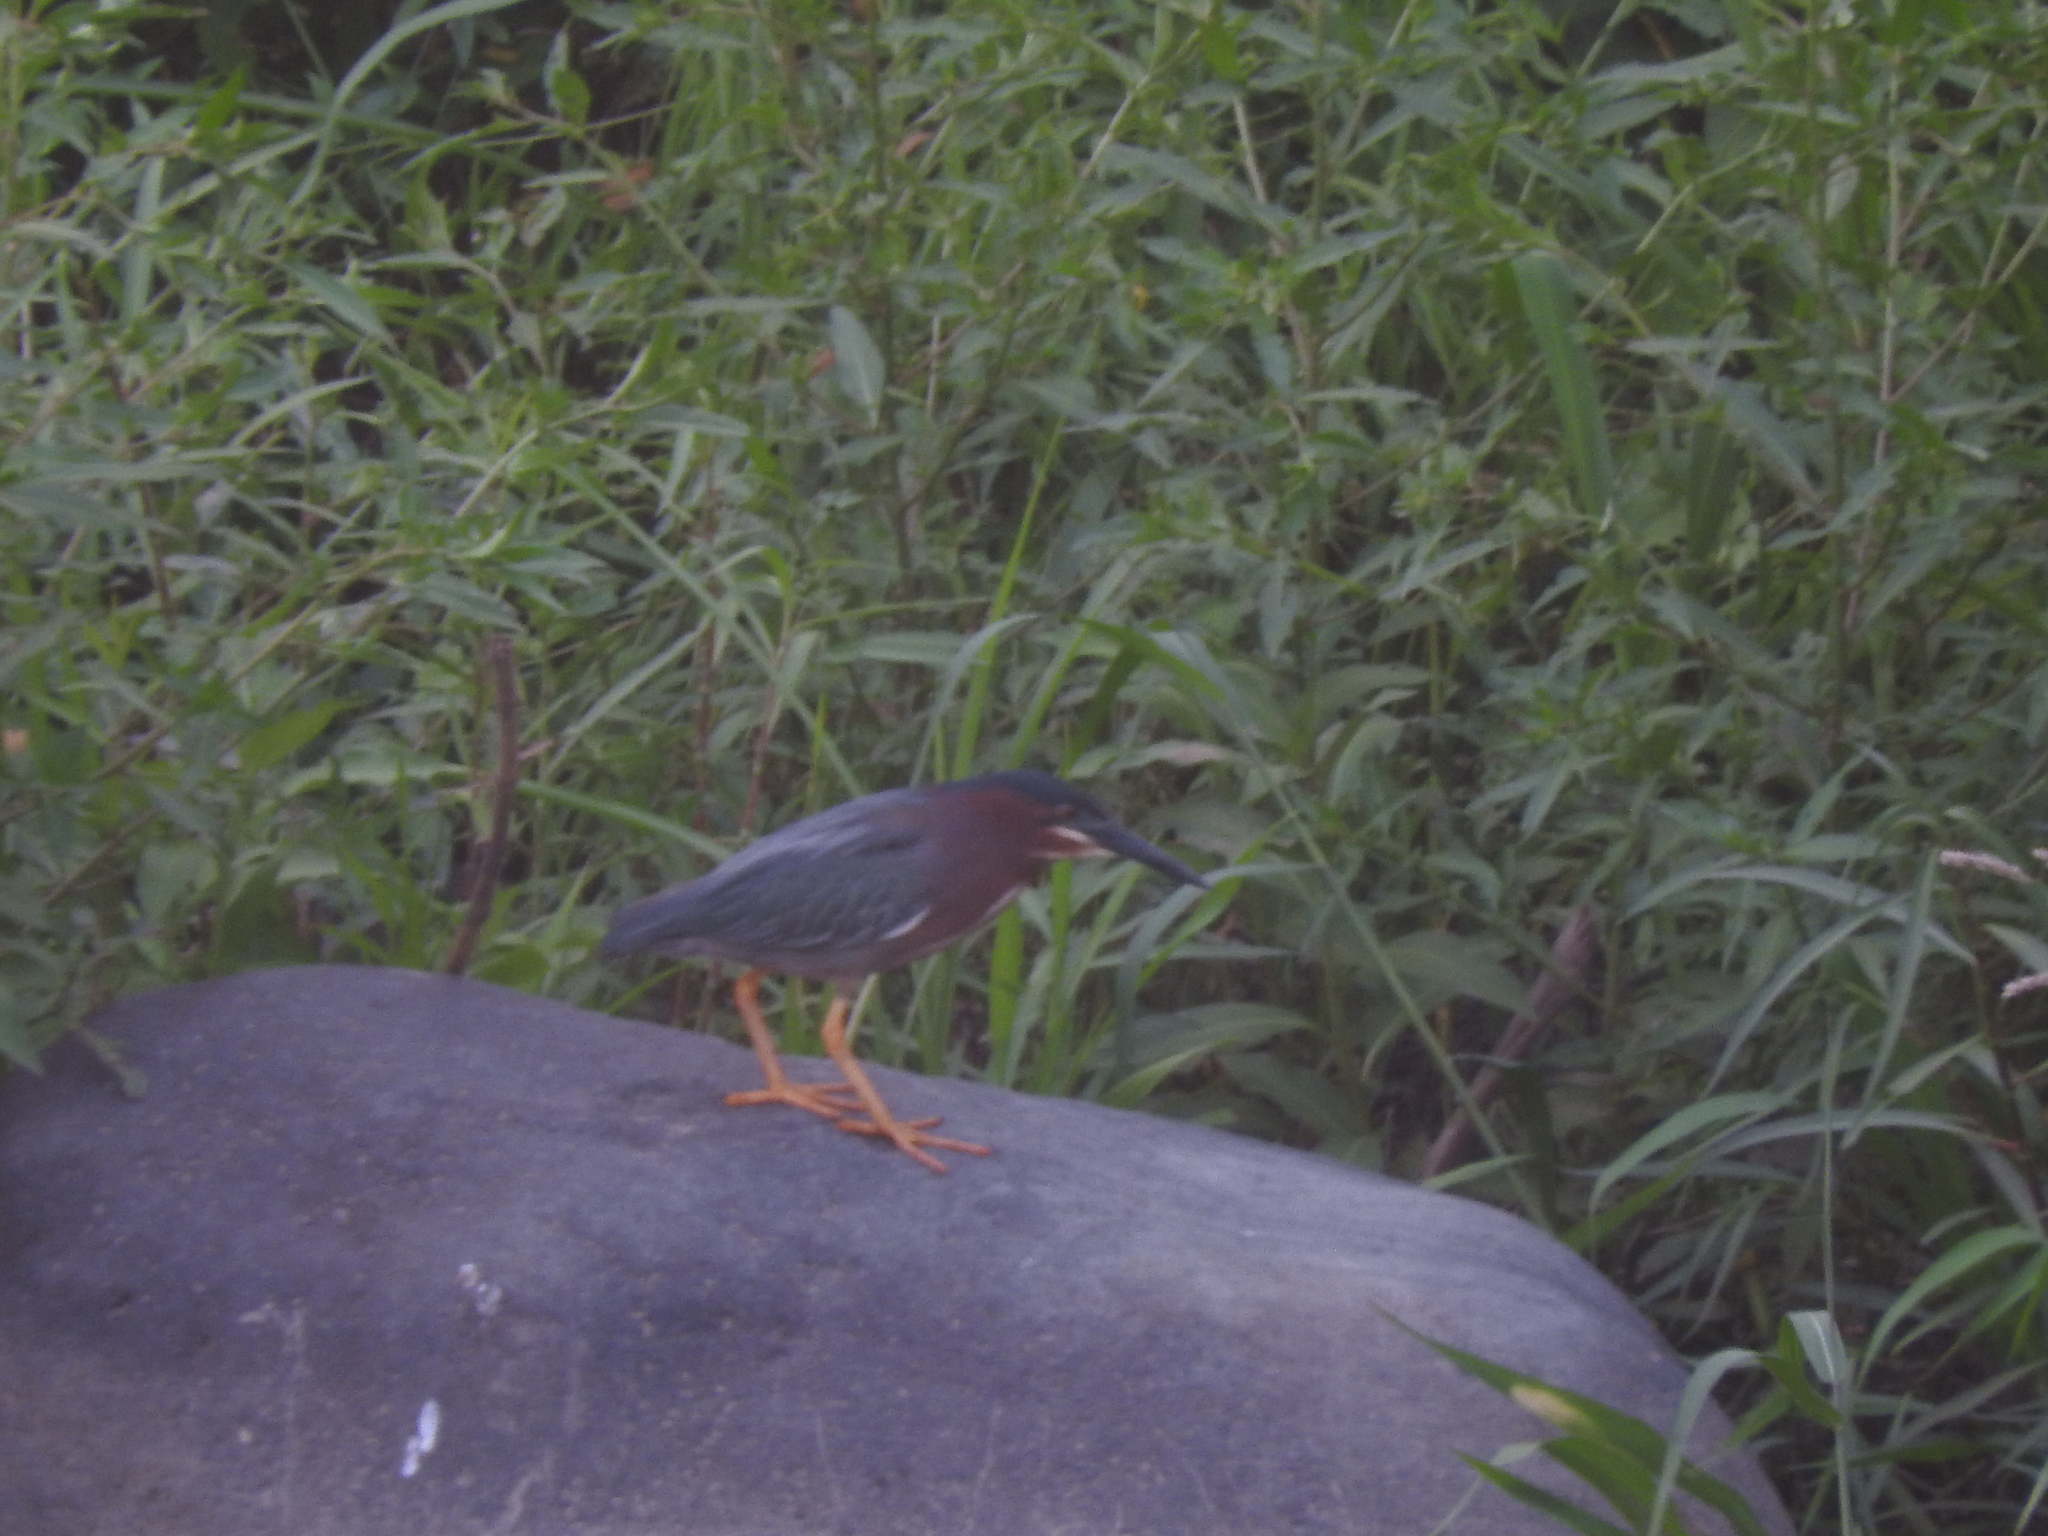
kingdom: Animalia
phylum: Chordata
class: Aves
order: Pelecaniformes
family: Ardeidae
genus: Butorides
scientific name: Butorides virescens
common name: Green heron
